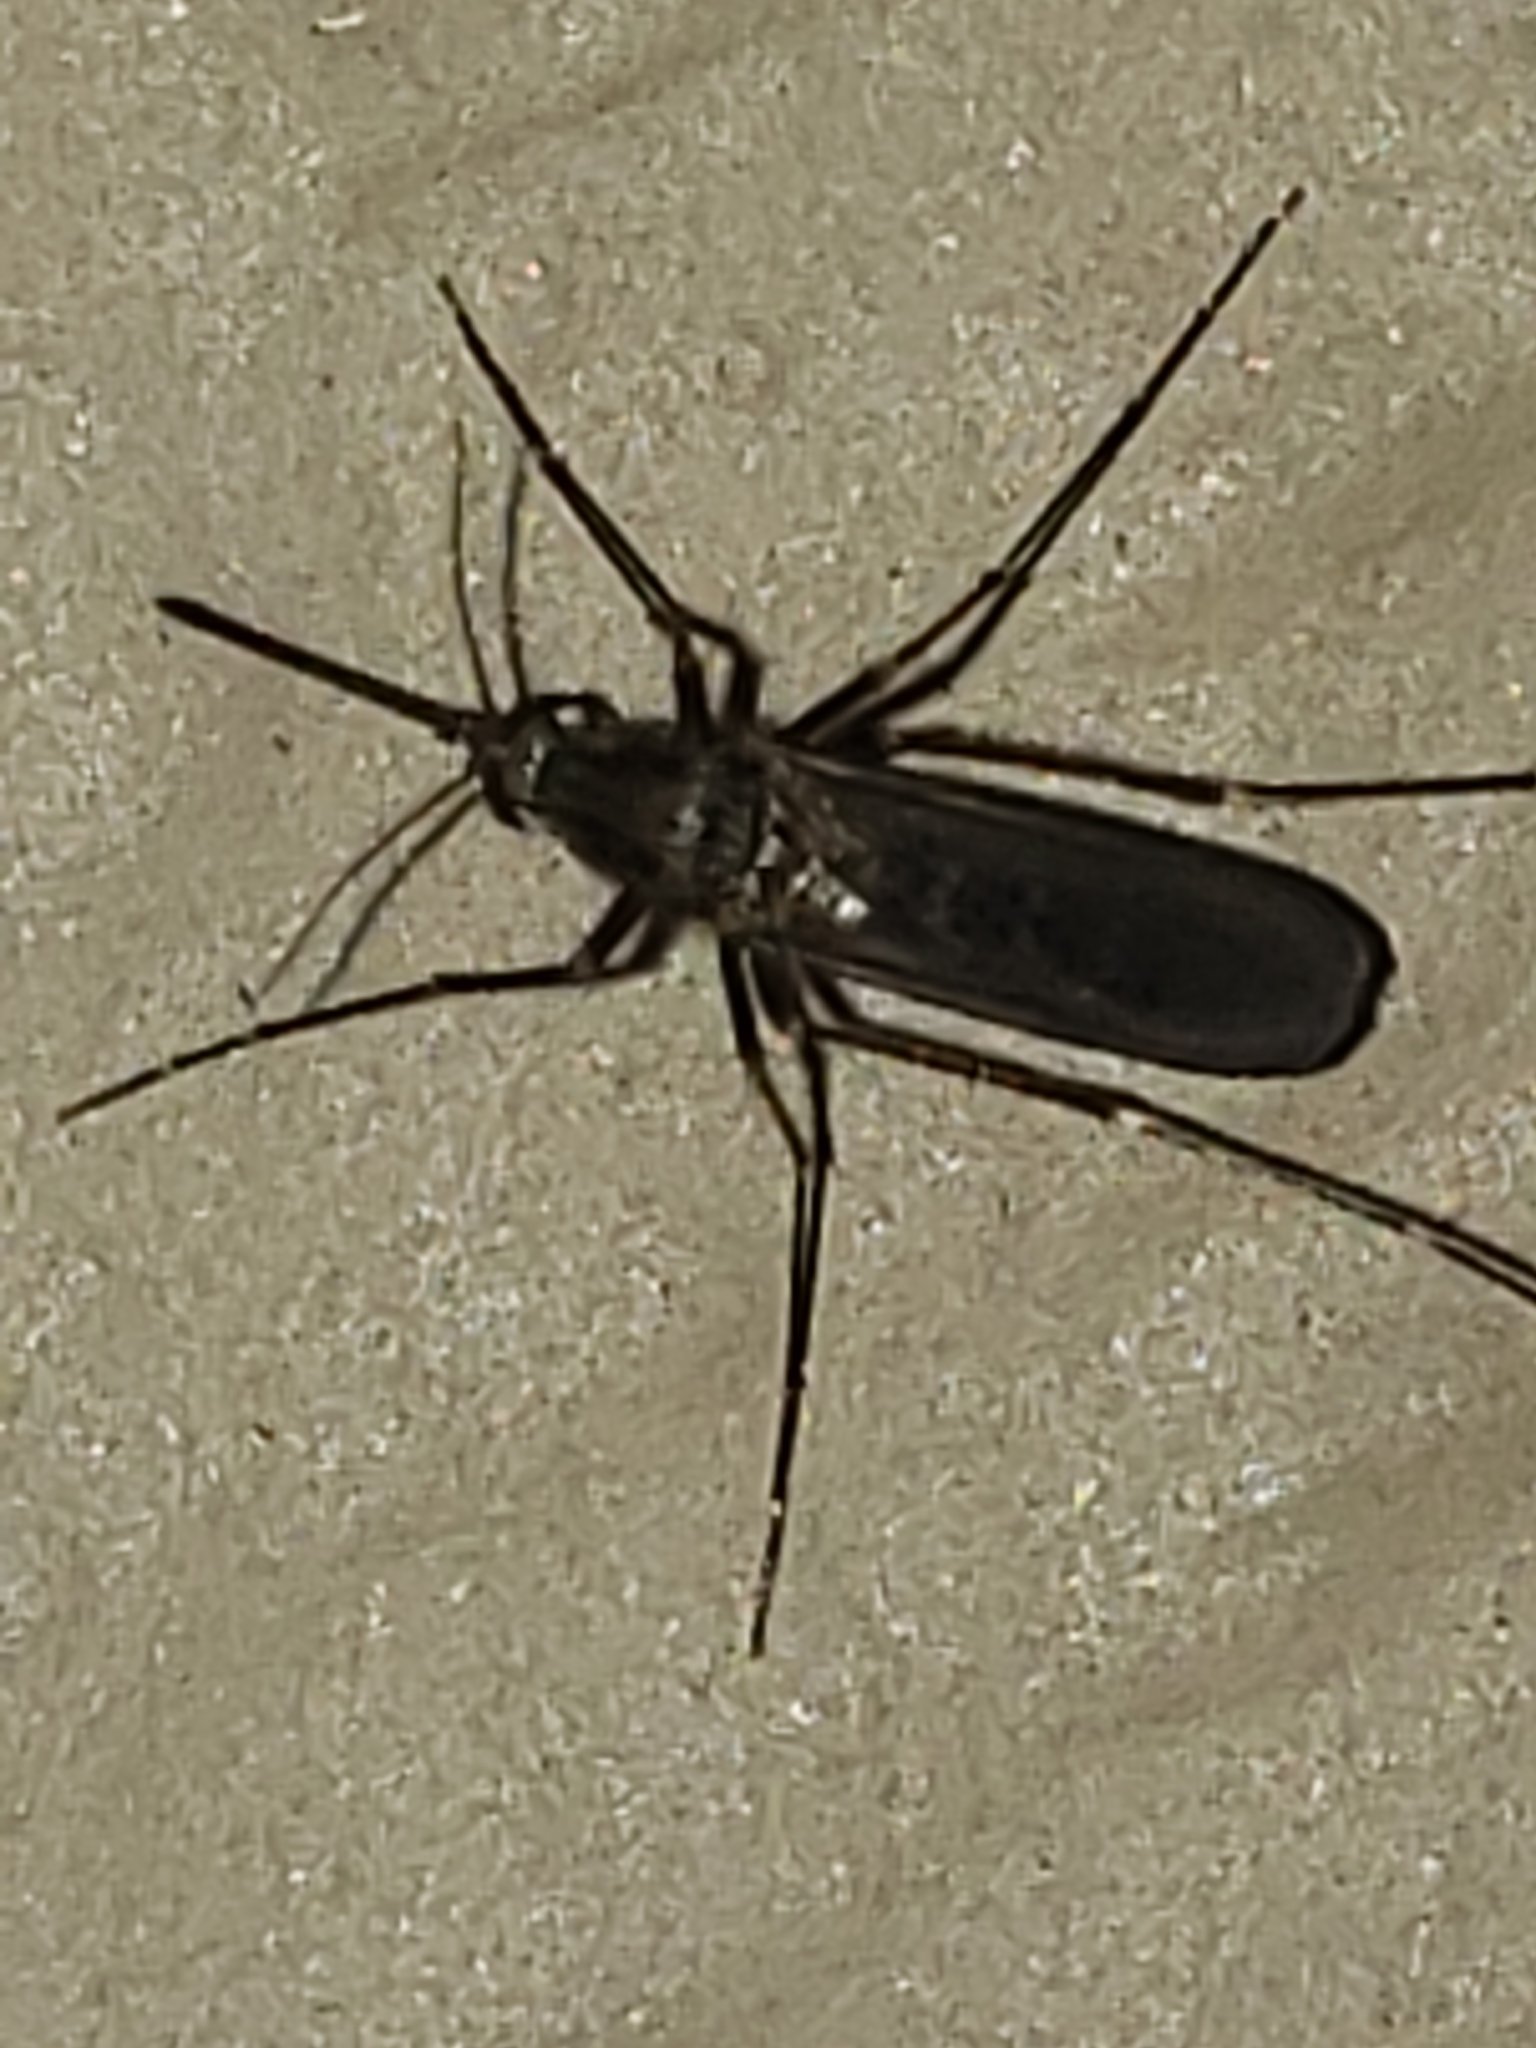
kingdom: Animalia
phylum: Arthropoda
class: Insecta
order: Diptera
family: Culicidae
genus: Aedes
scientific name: Aedes vexans
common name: Inland floodwater mosquito
